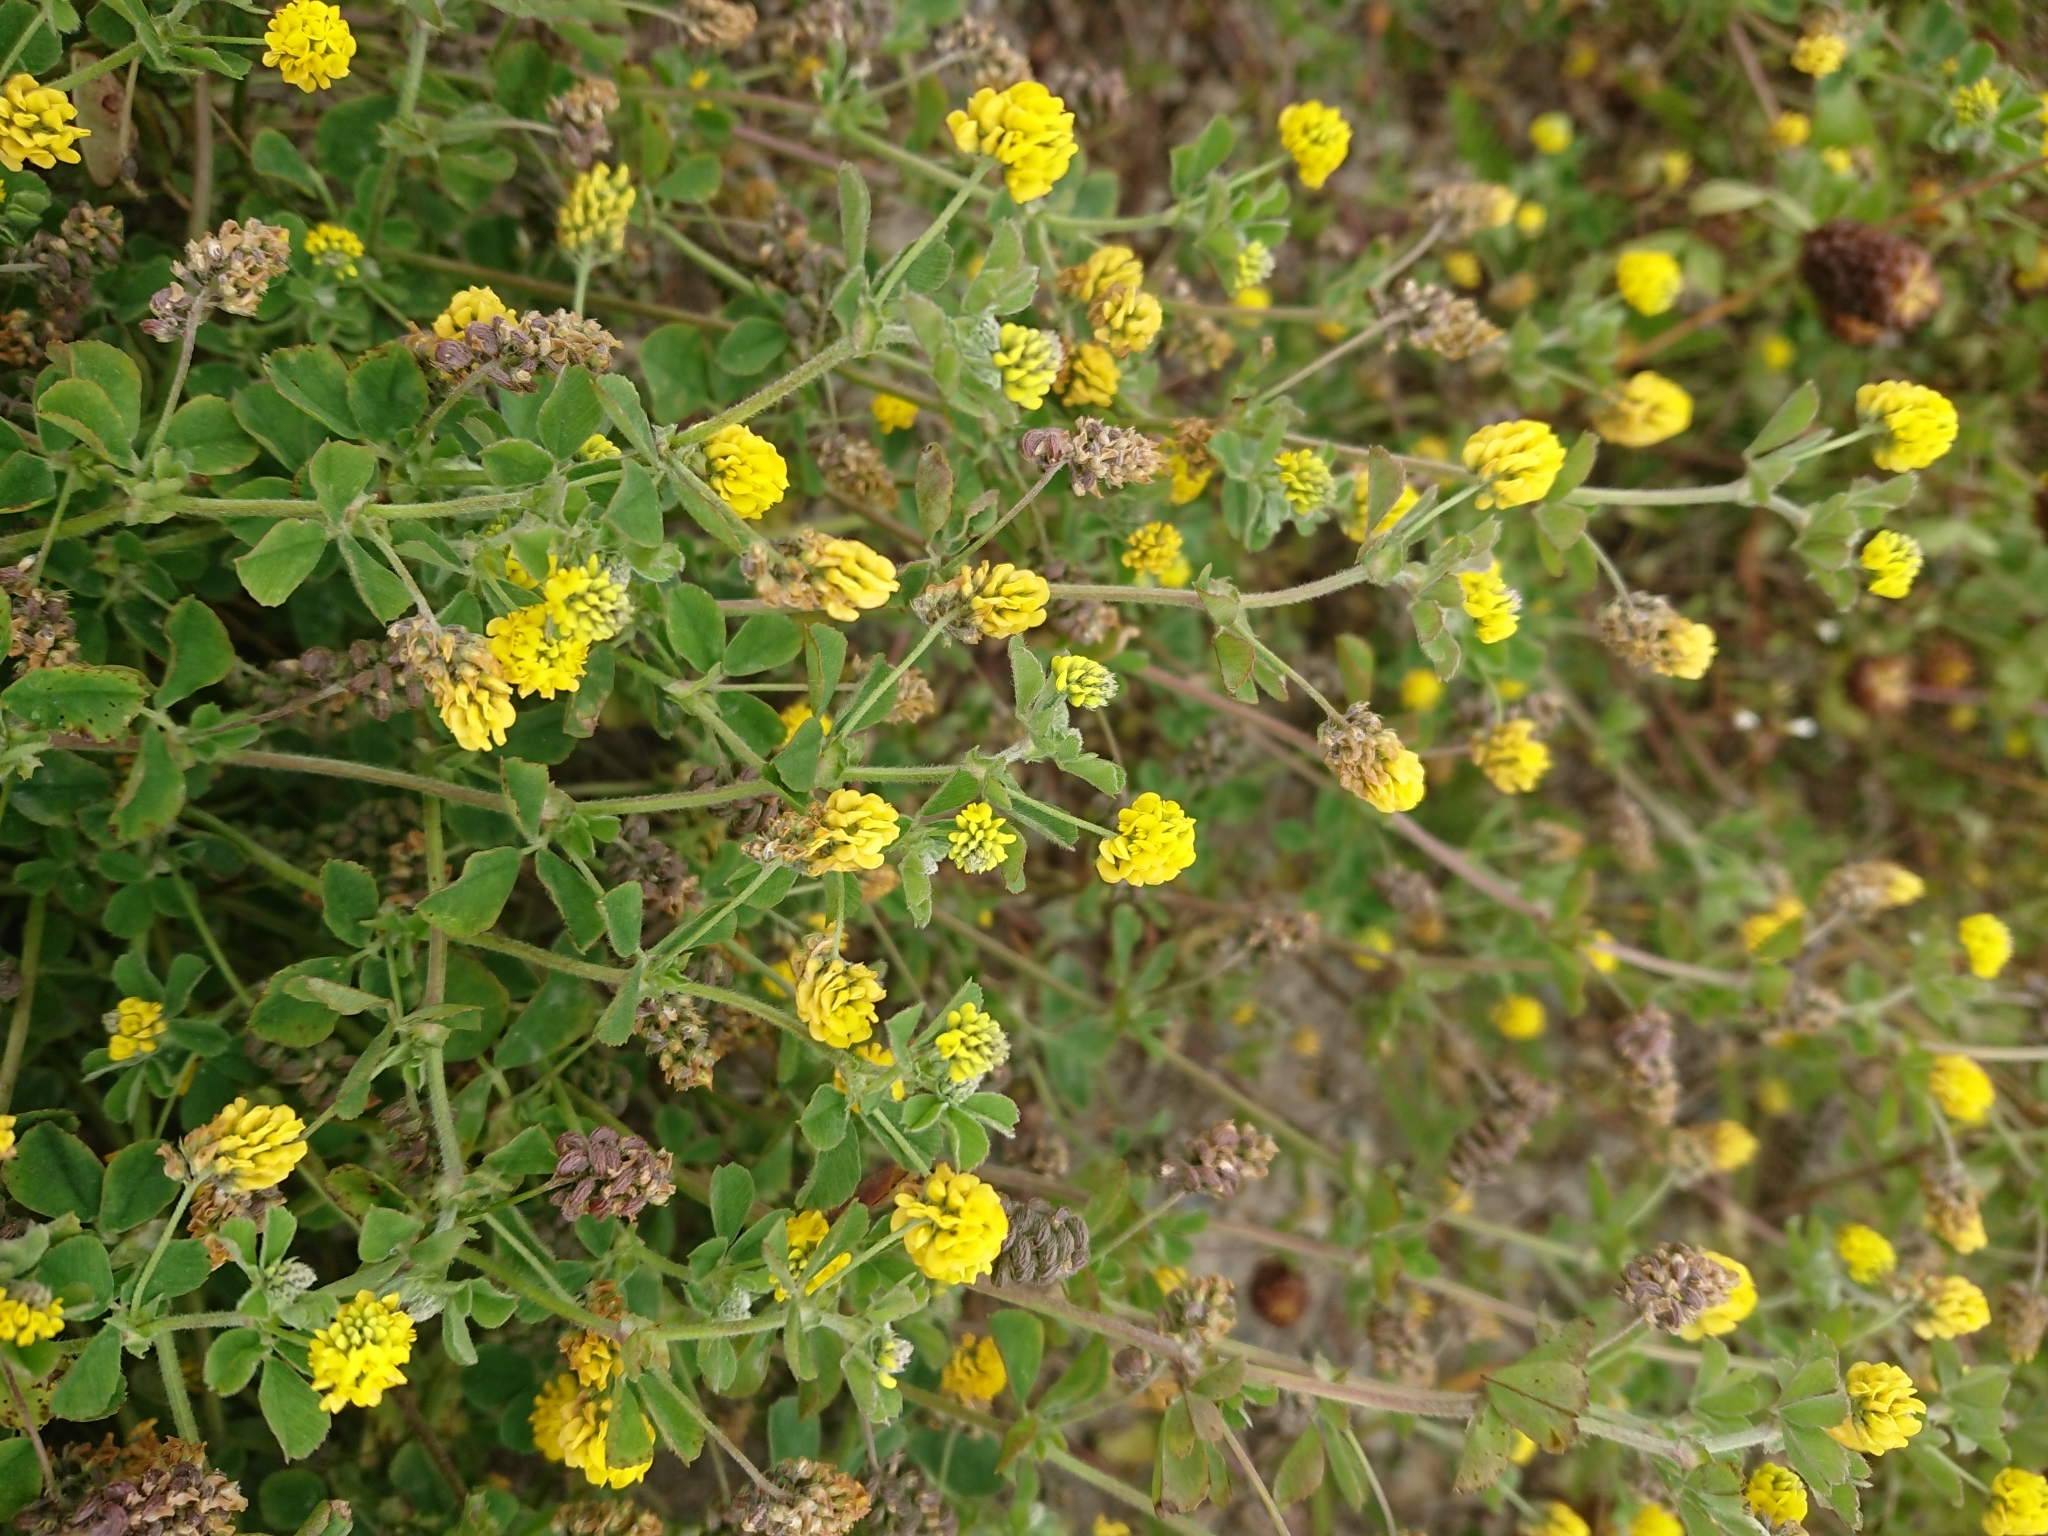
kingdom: Plantae
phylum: Tracheophyta
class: Magnoliopsida
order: Fabales
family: Fabaceae
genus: Medicago
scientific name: Medicago lupulina
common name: Black medick
